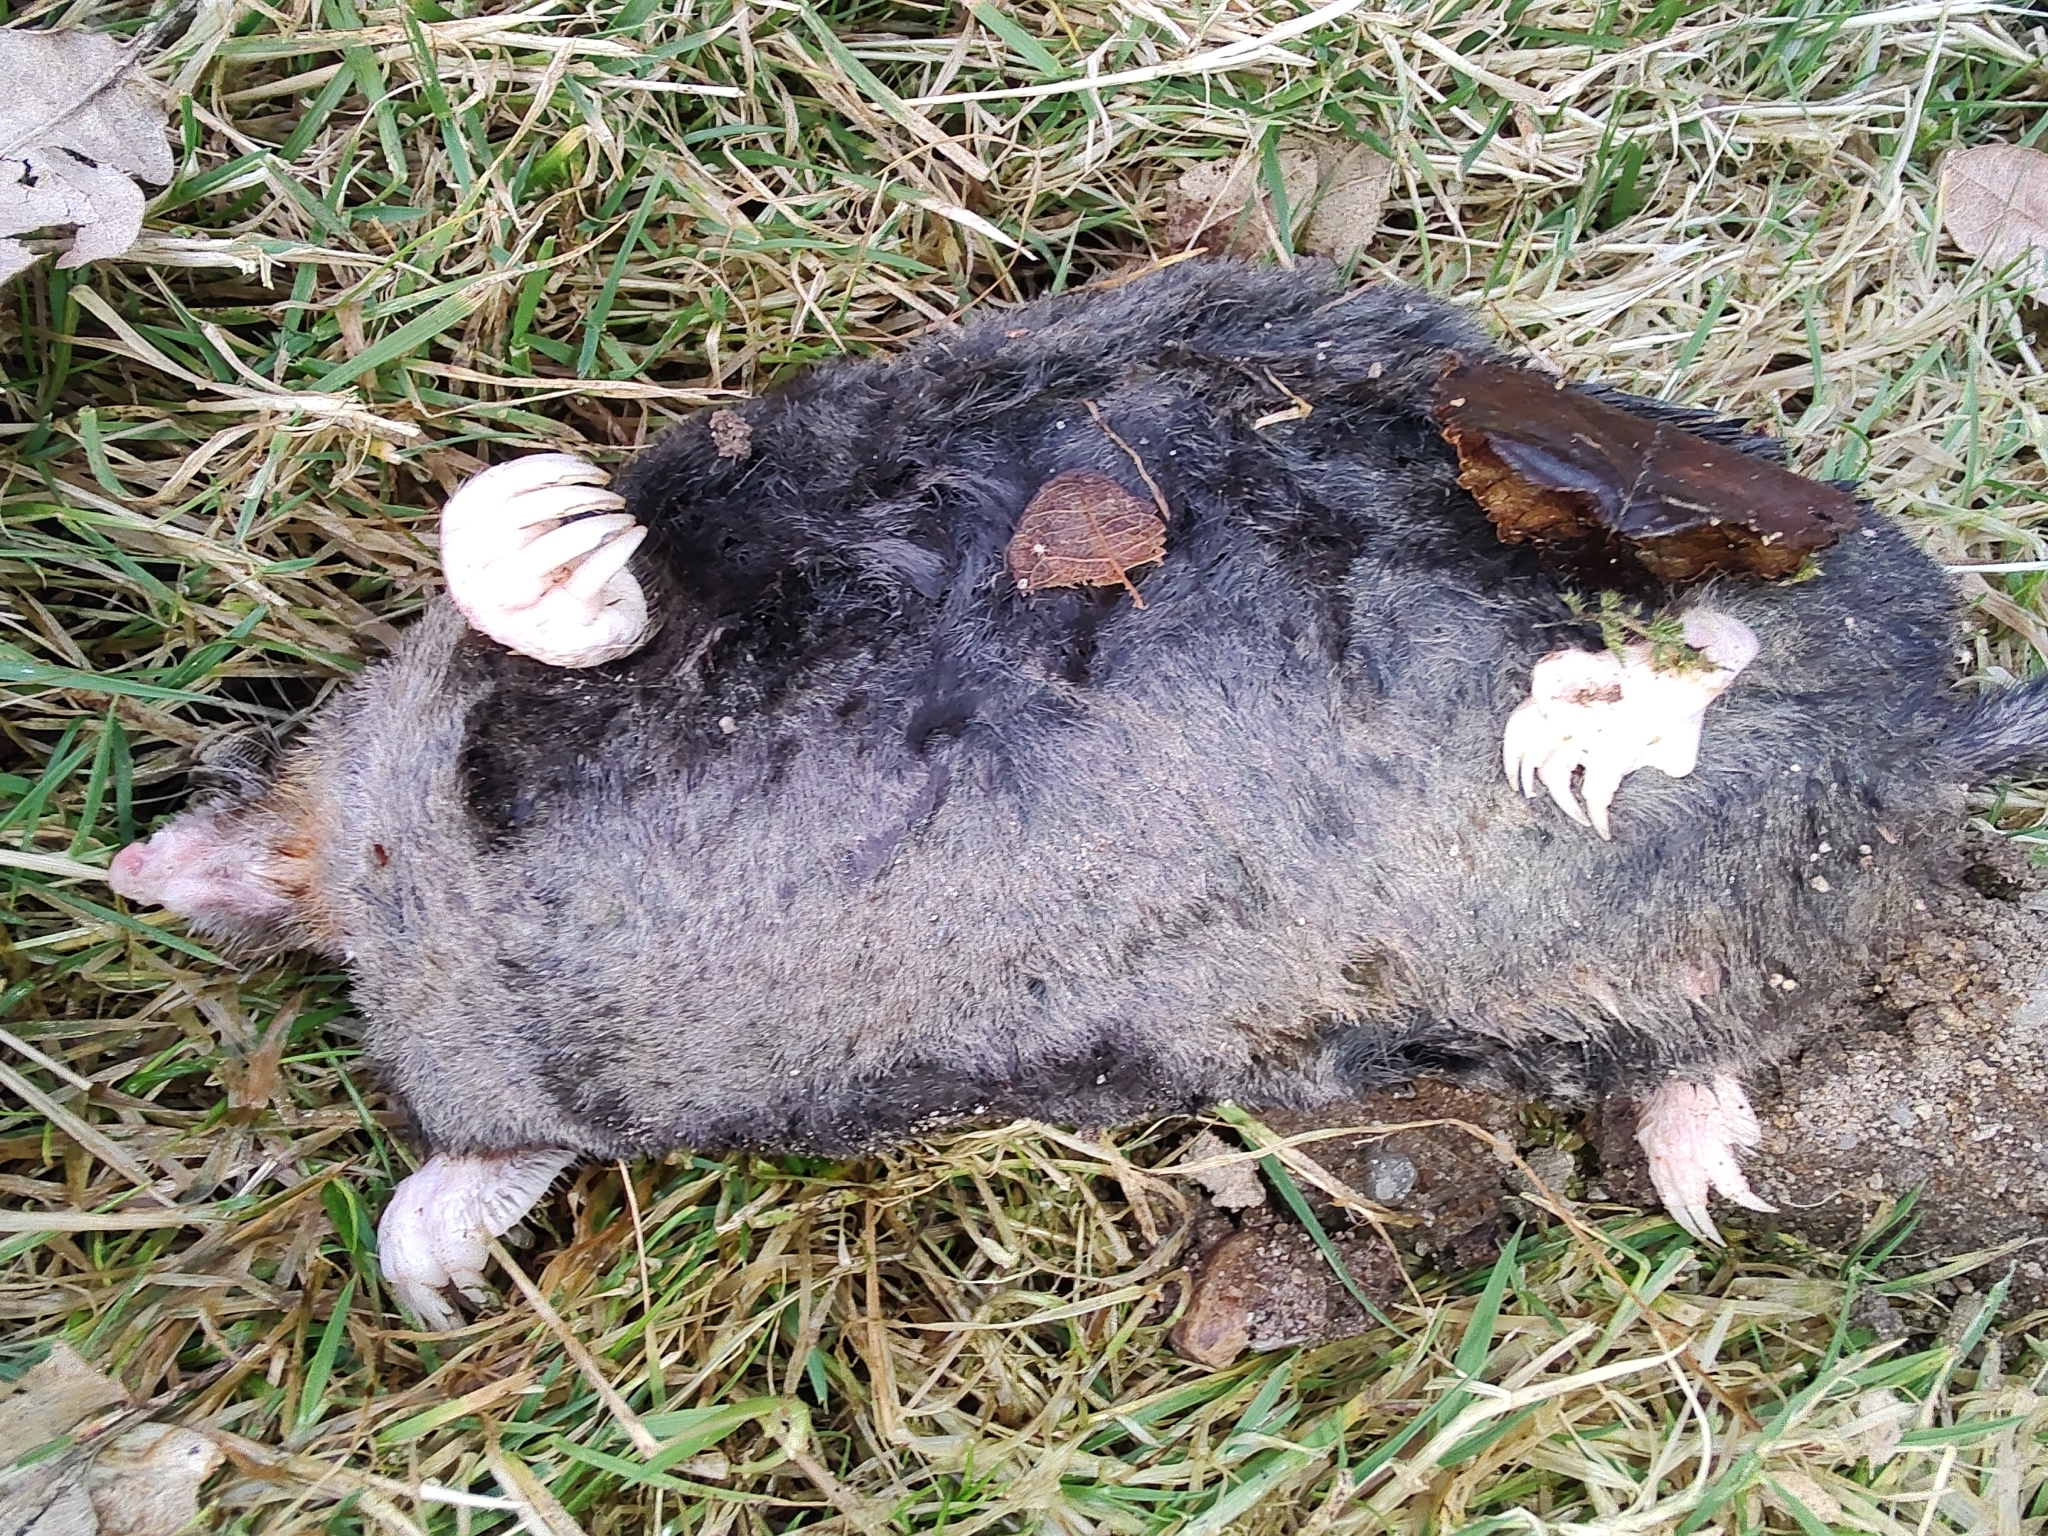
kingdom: Animalia
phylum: Chordata
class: Mammalia
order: Soricomorpha
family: Talpidae
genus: Talpa
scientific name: Talpa europaea
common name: European mole
